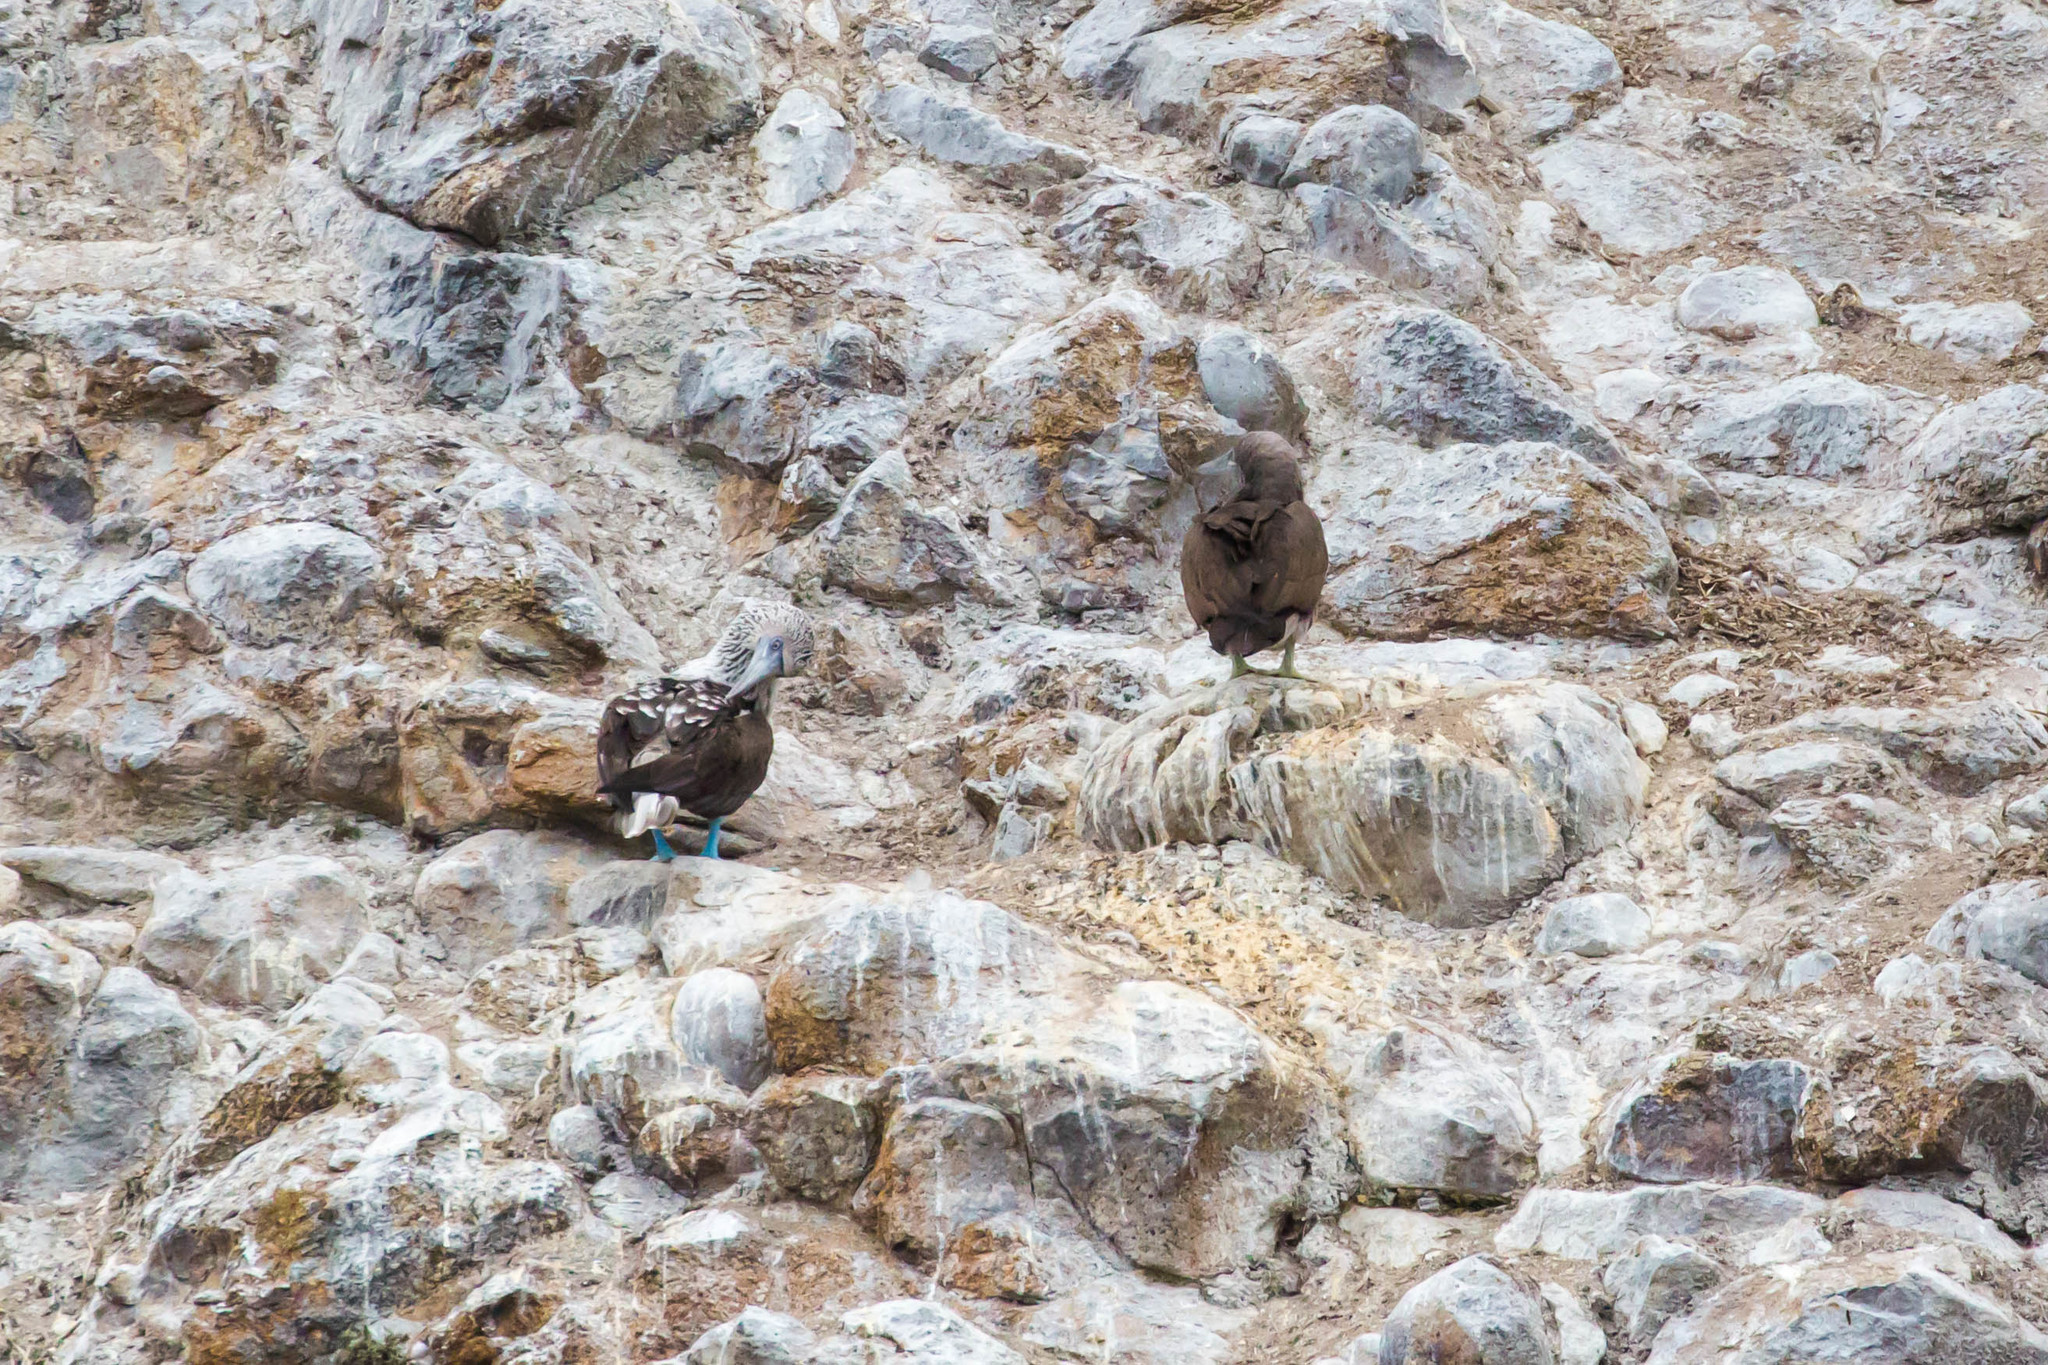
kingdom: Animalia
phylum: Chordata
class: Aves
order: Suliformes
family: Sulidae
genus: Sula
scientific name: Sula nebouxii
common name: Blue-footed booby
